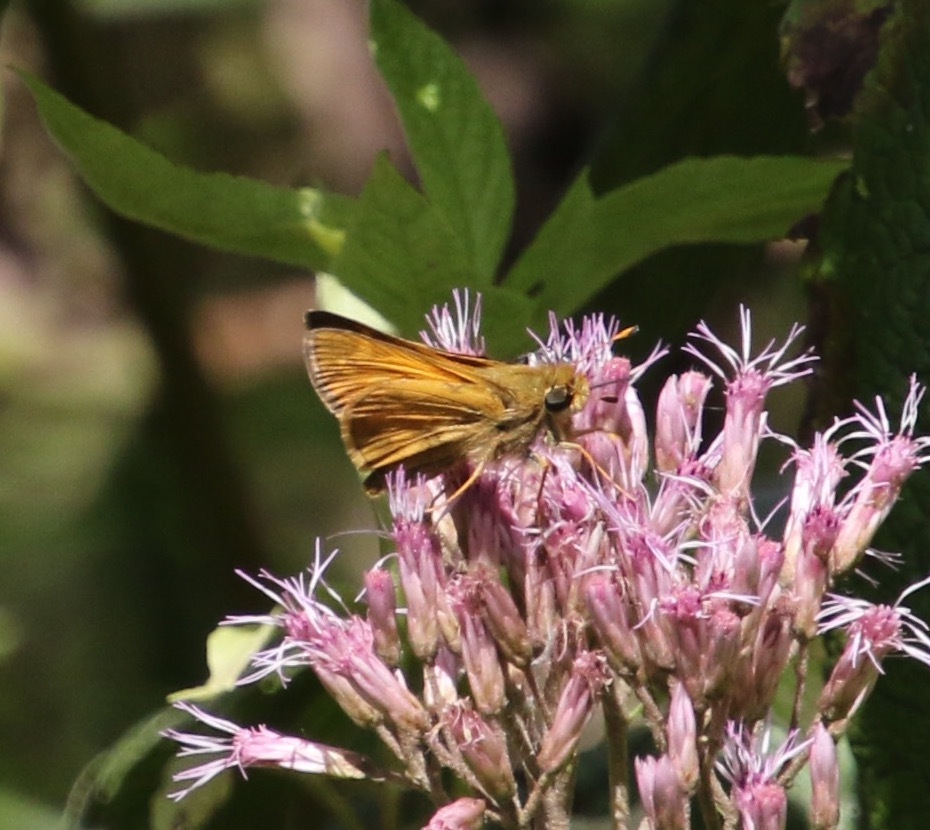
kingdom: Animalia
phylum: Arthropoda
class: Insecta
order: Lepidoptera
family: Hesperiidae
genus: Atalopedes
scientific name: Atalopedes
